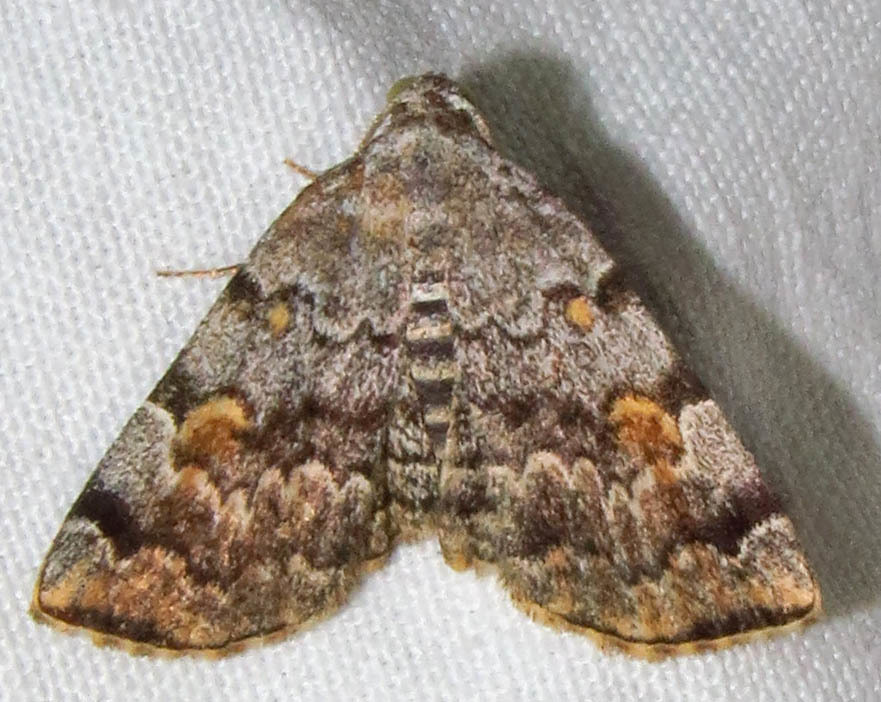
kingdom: Animalia
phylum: Arthropoda
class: Insecta
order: Lepidoptera
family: Erebidae
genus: Idia
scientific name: Idia americalis
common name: American idia moth
